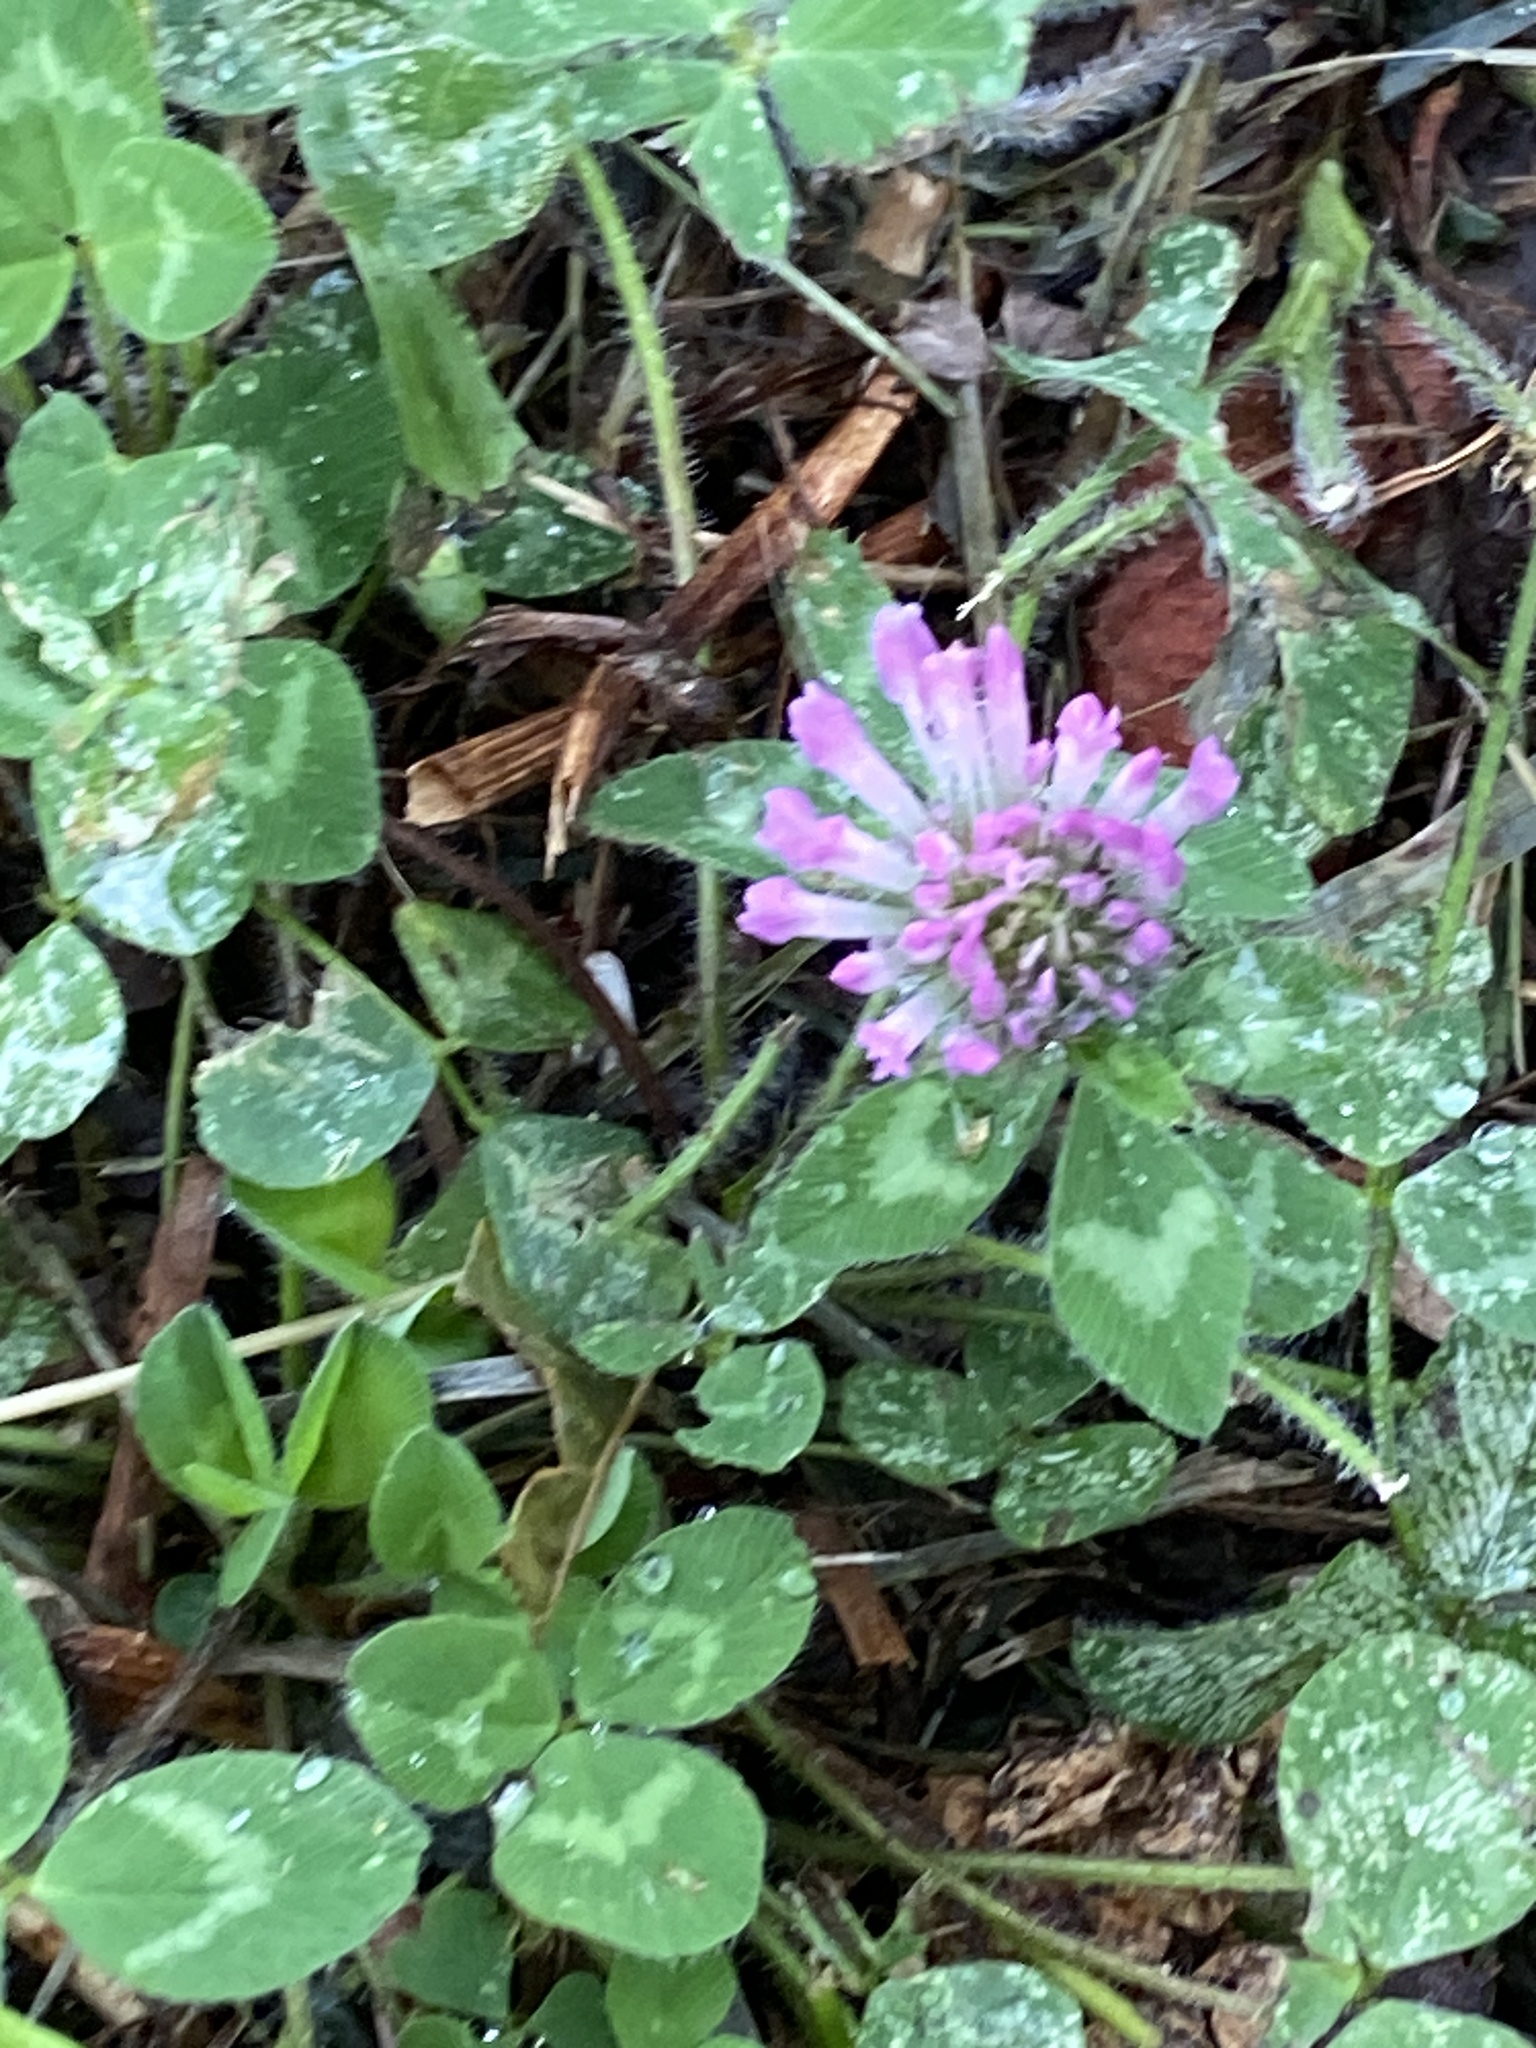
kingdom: Plantae
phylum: Tracheophyta
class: Magnoliopsida
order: Fabales
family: Fabaceae
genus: Trifolium
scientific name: Trifolium pratense
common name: Red clover
